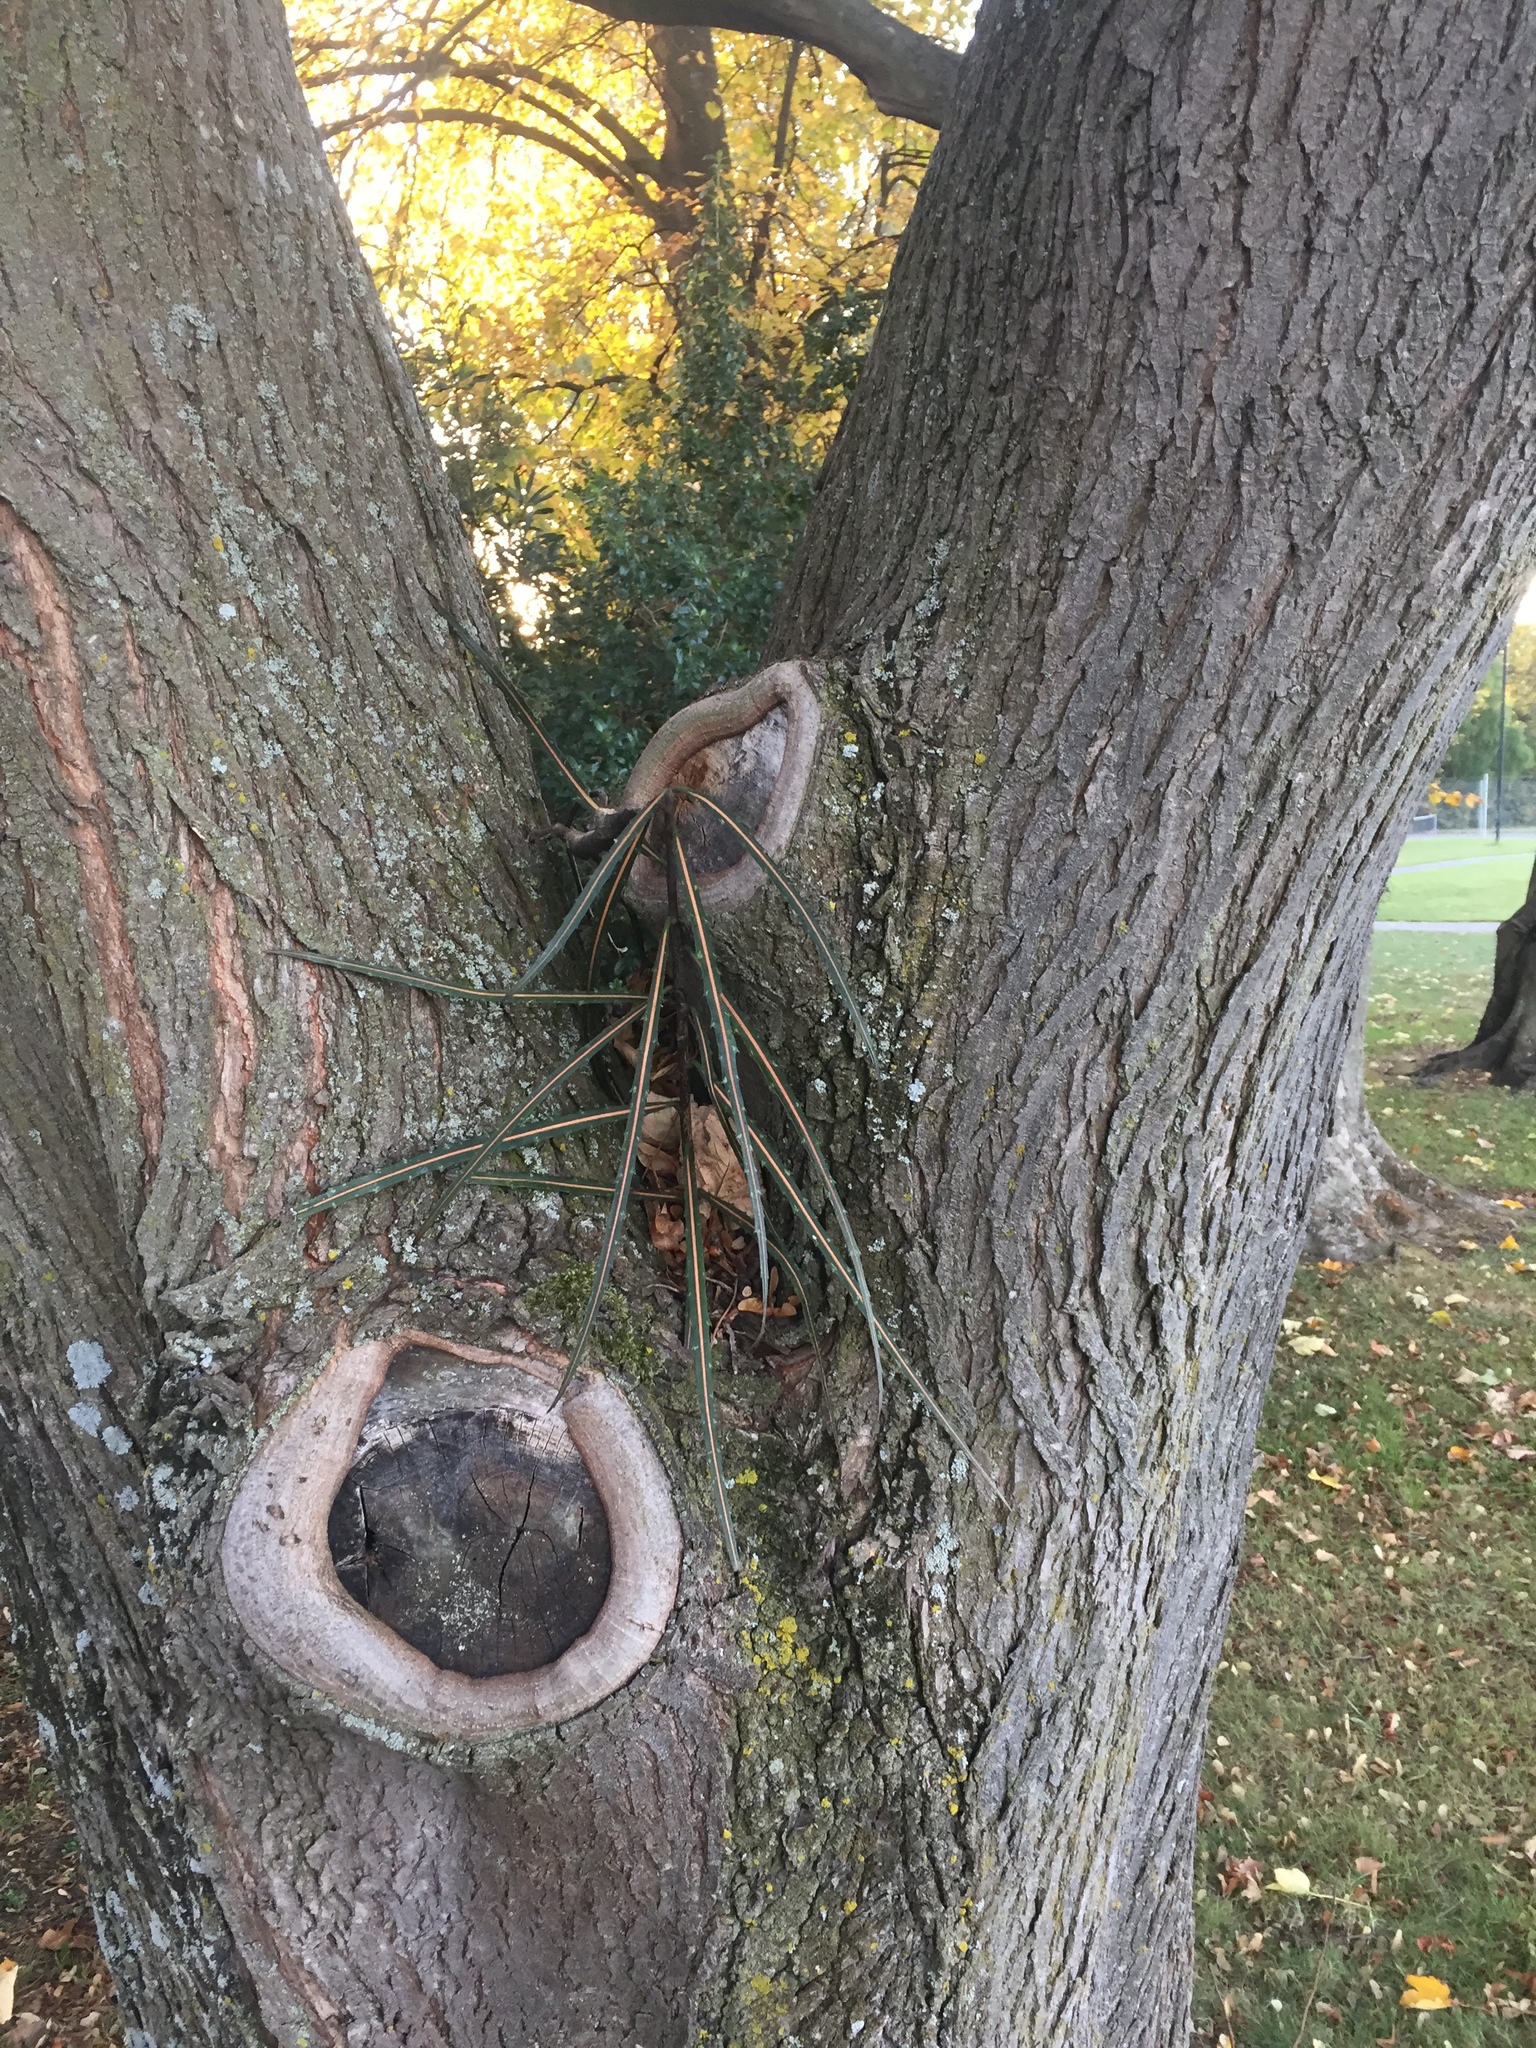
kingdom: Plantae
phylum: Tracheophyta
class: Magnoliopsida
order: Apiales
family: Araliaceae
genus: Pseudopanax
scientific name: Pseudopanax crassifolius
